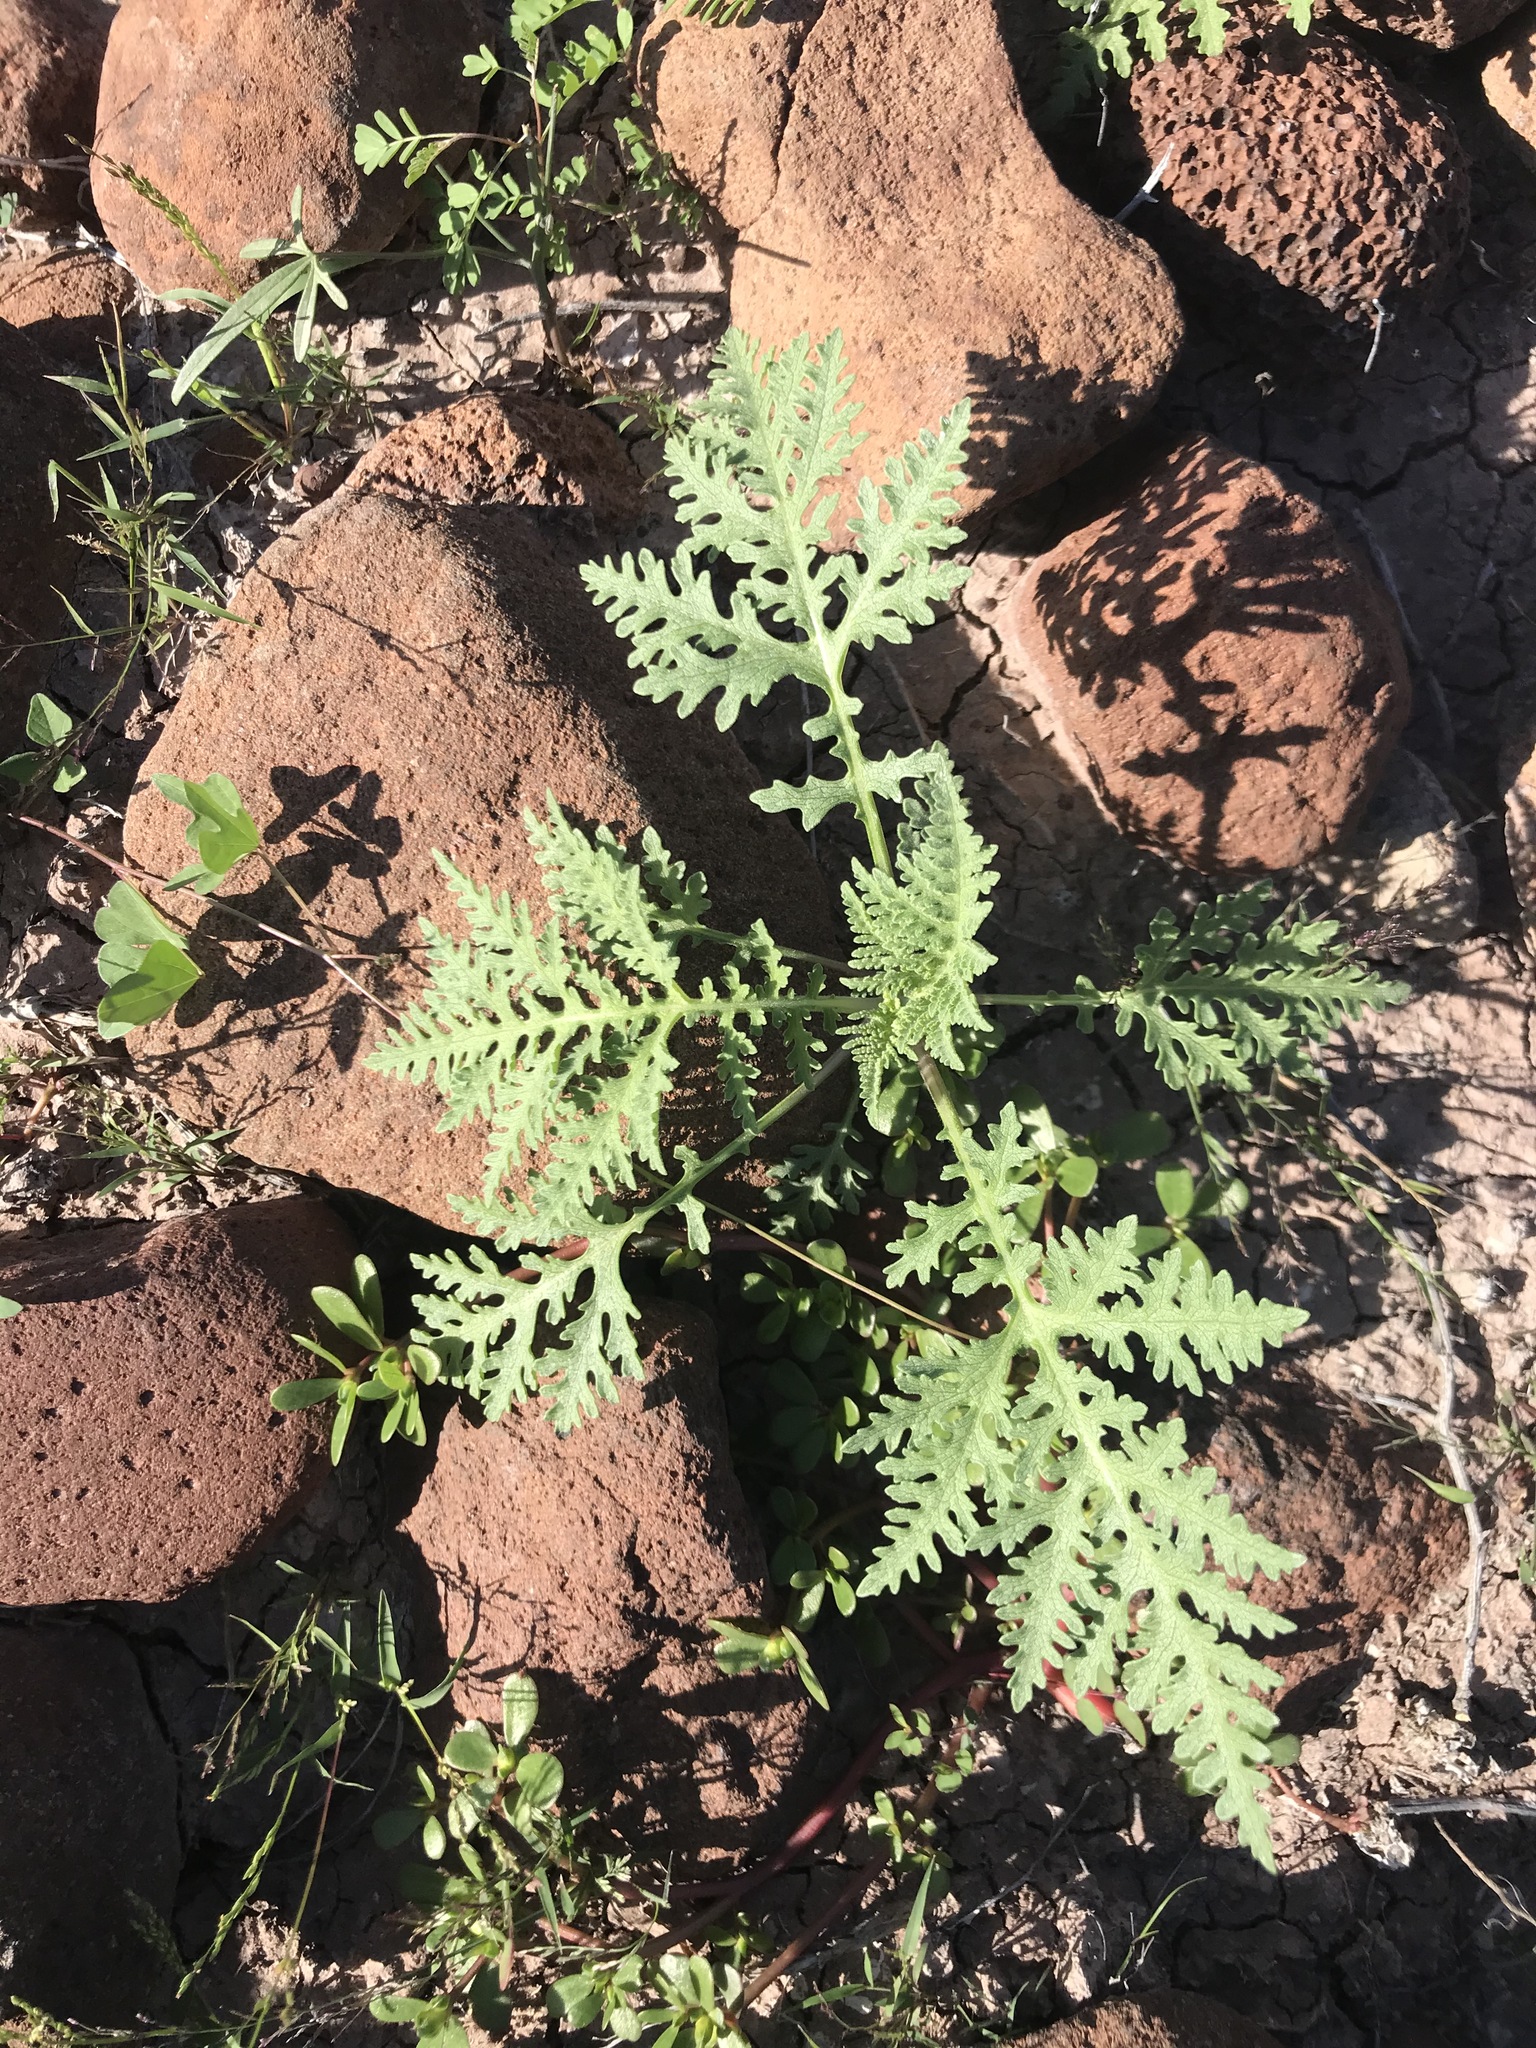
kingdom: Plantae
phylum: Tracheophyta
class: Magnoliopsida
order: Asterales
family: Asteraceae
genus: Ambrosia
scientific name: Ambrosia camphorata
